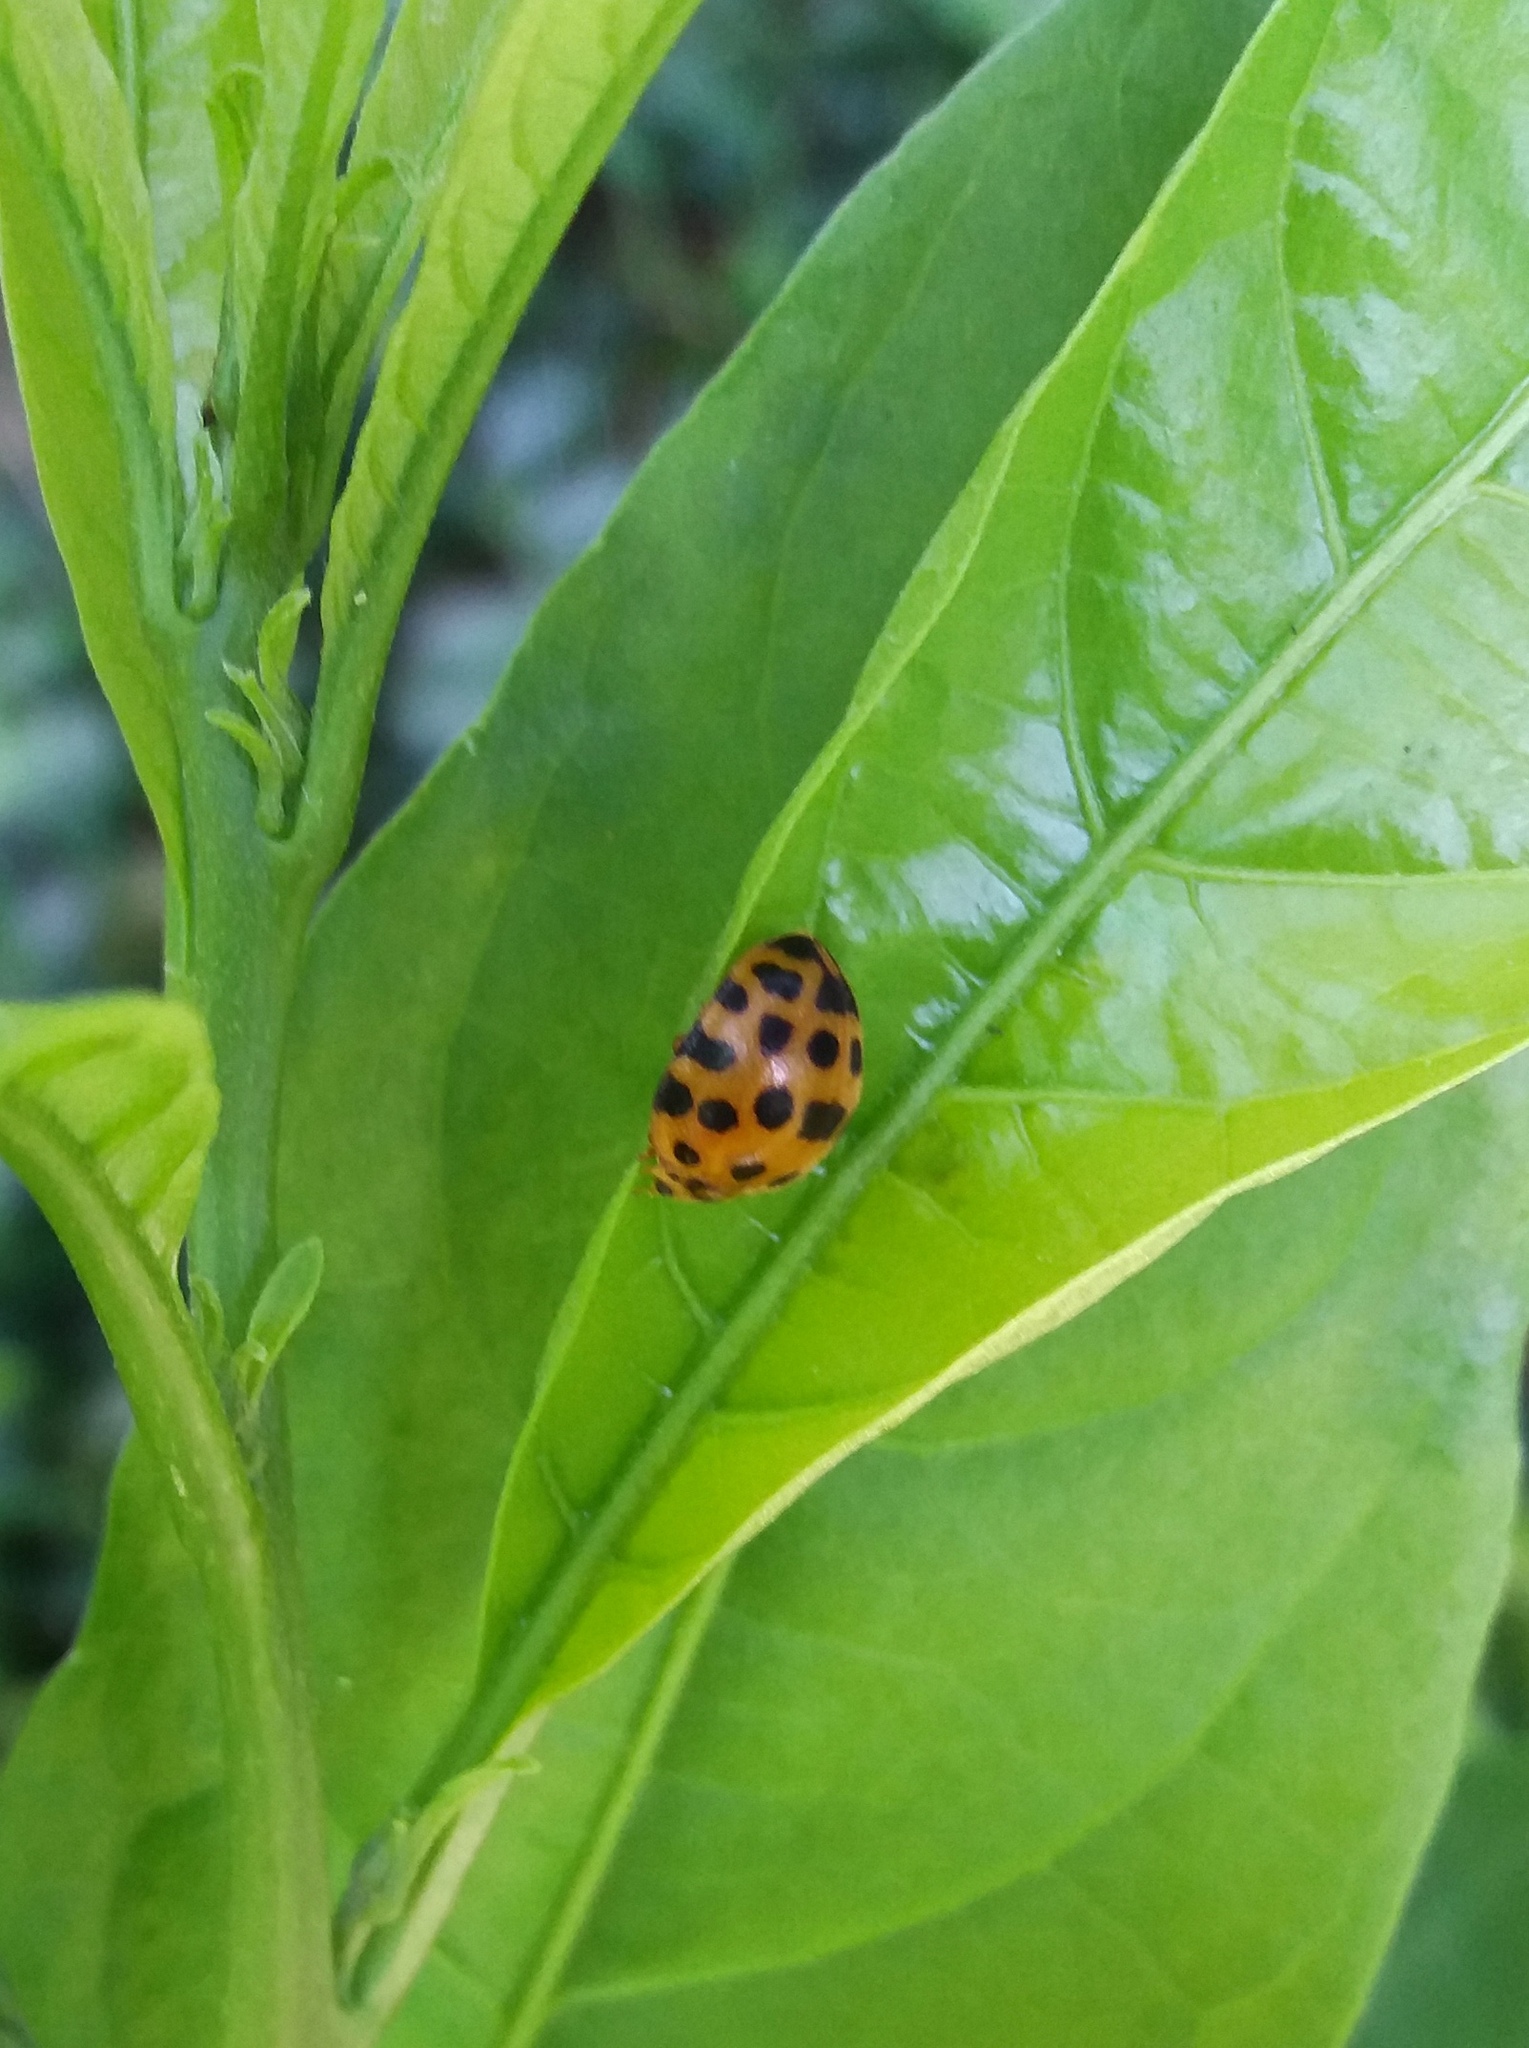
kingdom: Animalia
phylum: Arthropoda
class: Insecta
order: Coleoptera
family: Coccinellidae
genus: Henosepilachna
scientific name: Henosepilachna vigintioctopunctata
